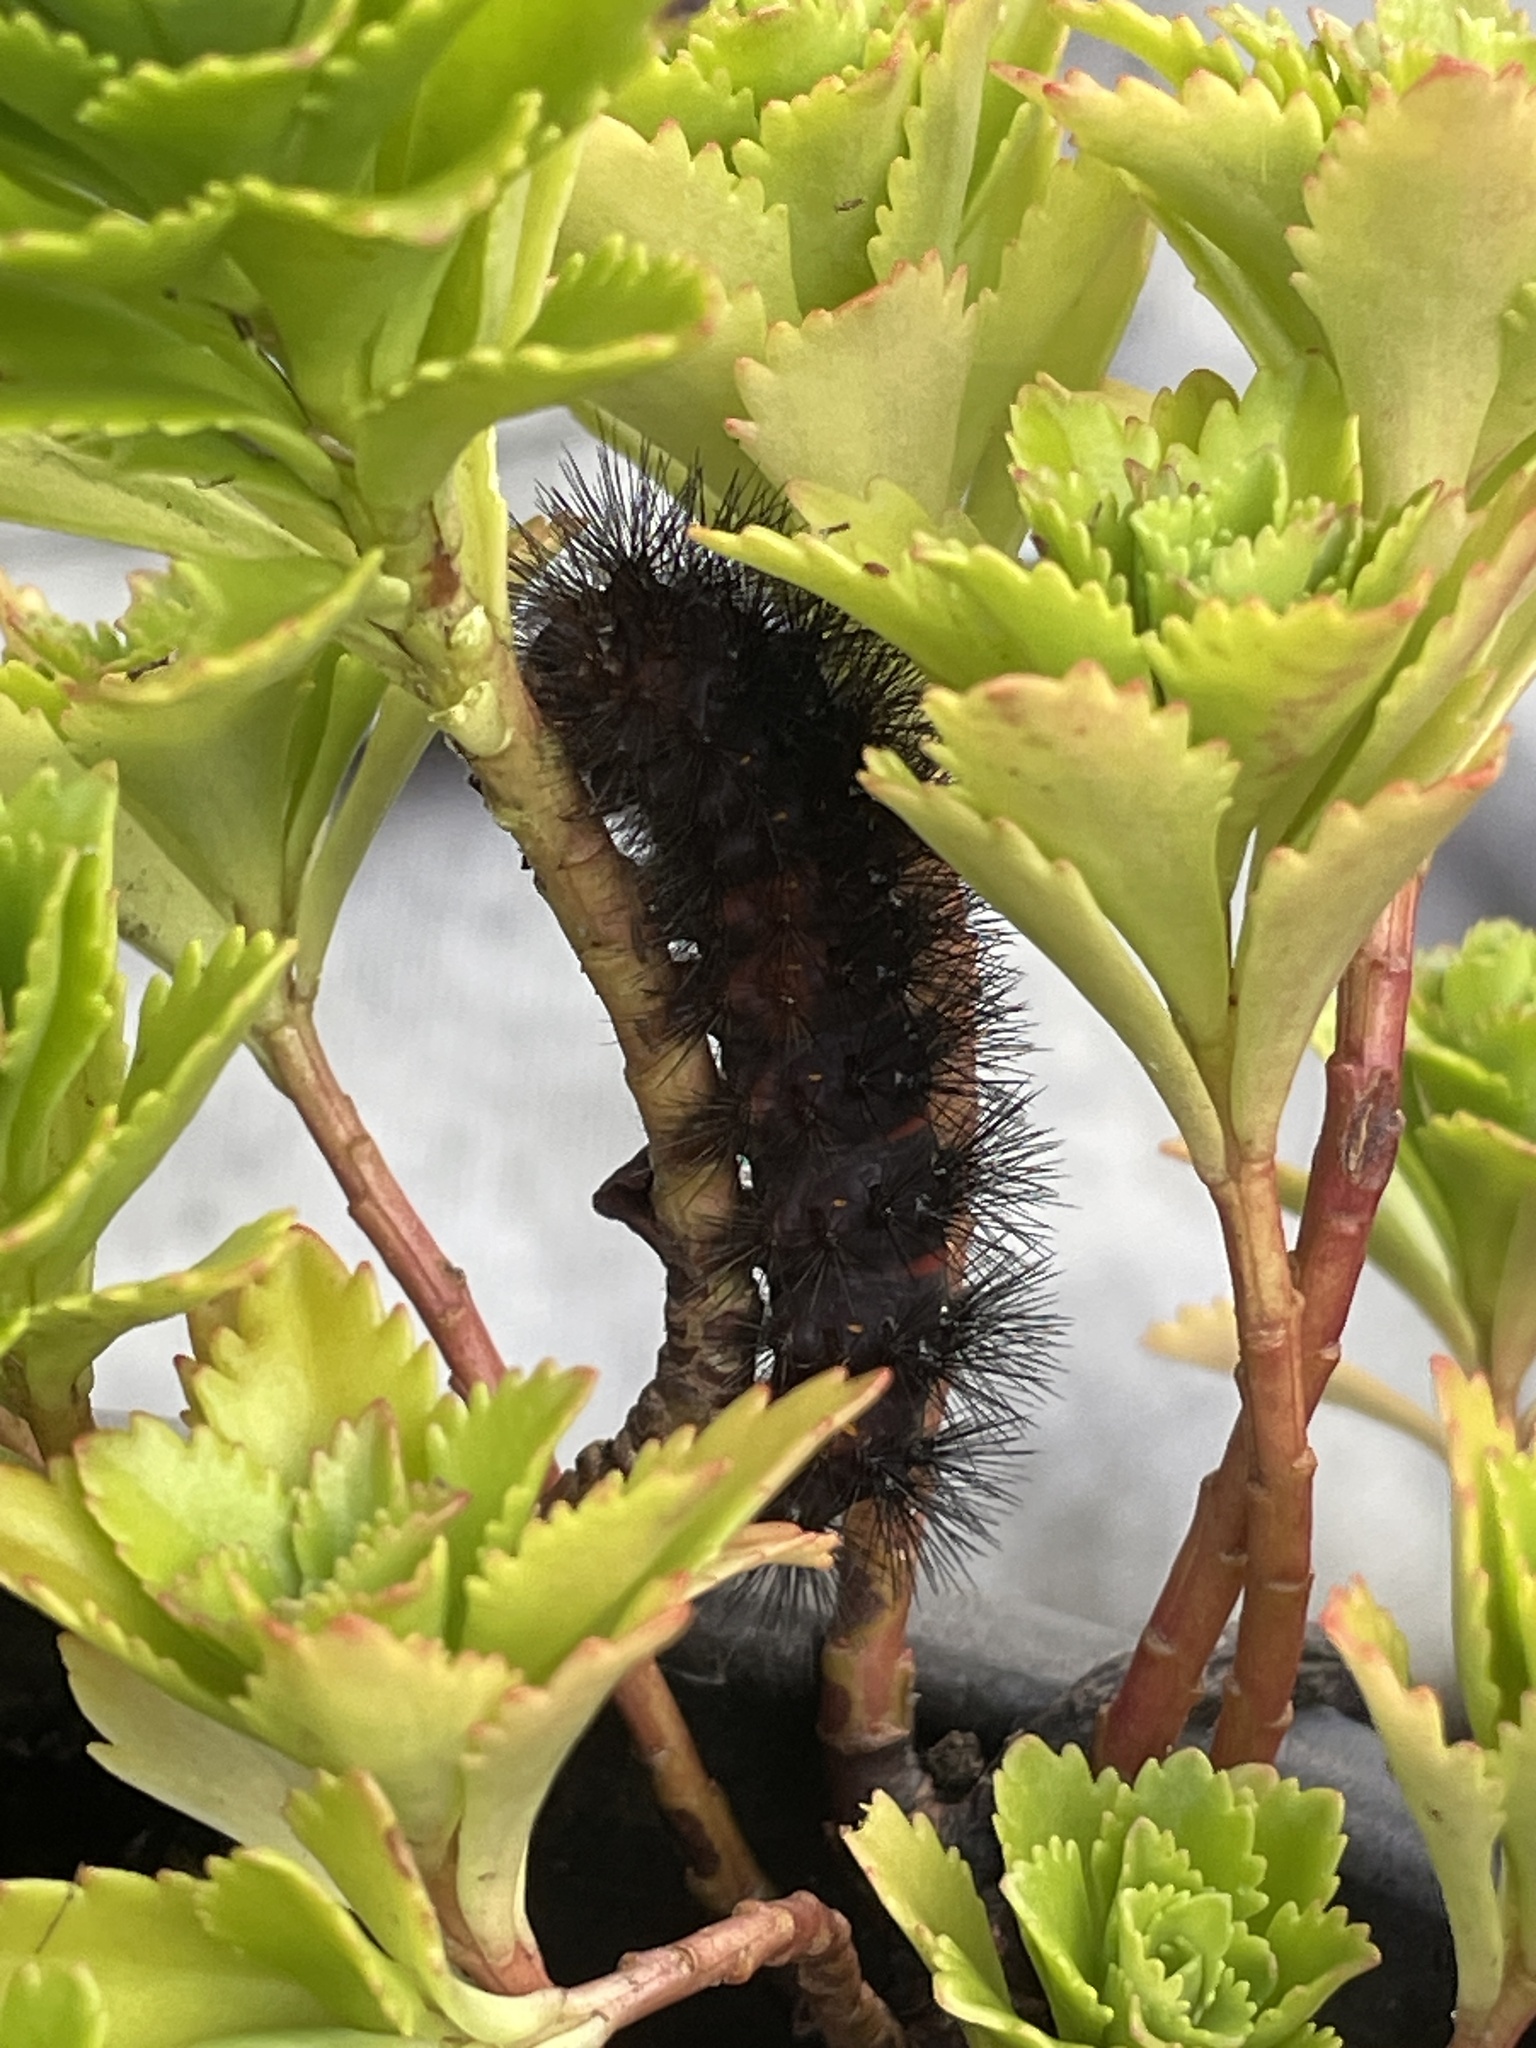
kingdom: Animalia
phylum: Arthropoda
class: Insecta
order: Lepidoptera
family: Erebidae
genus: Hypercompe
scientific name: Hypercompe scribonia
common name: Giant leopard moth
